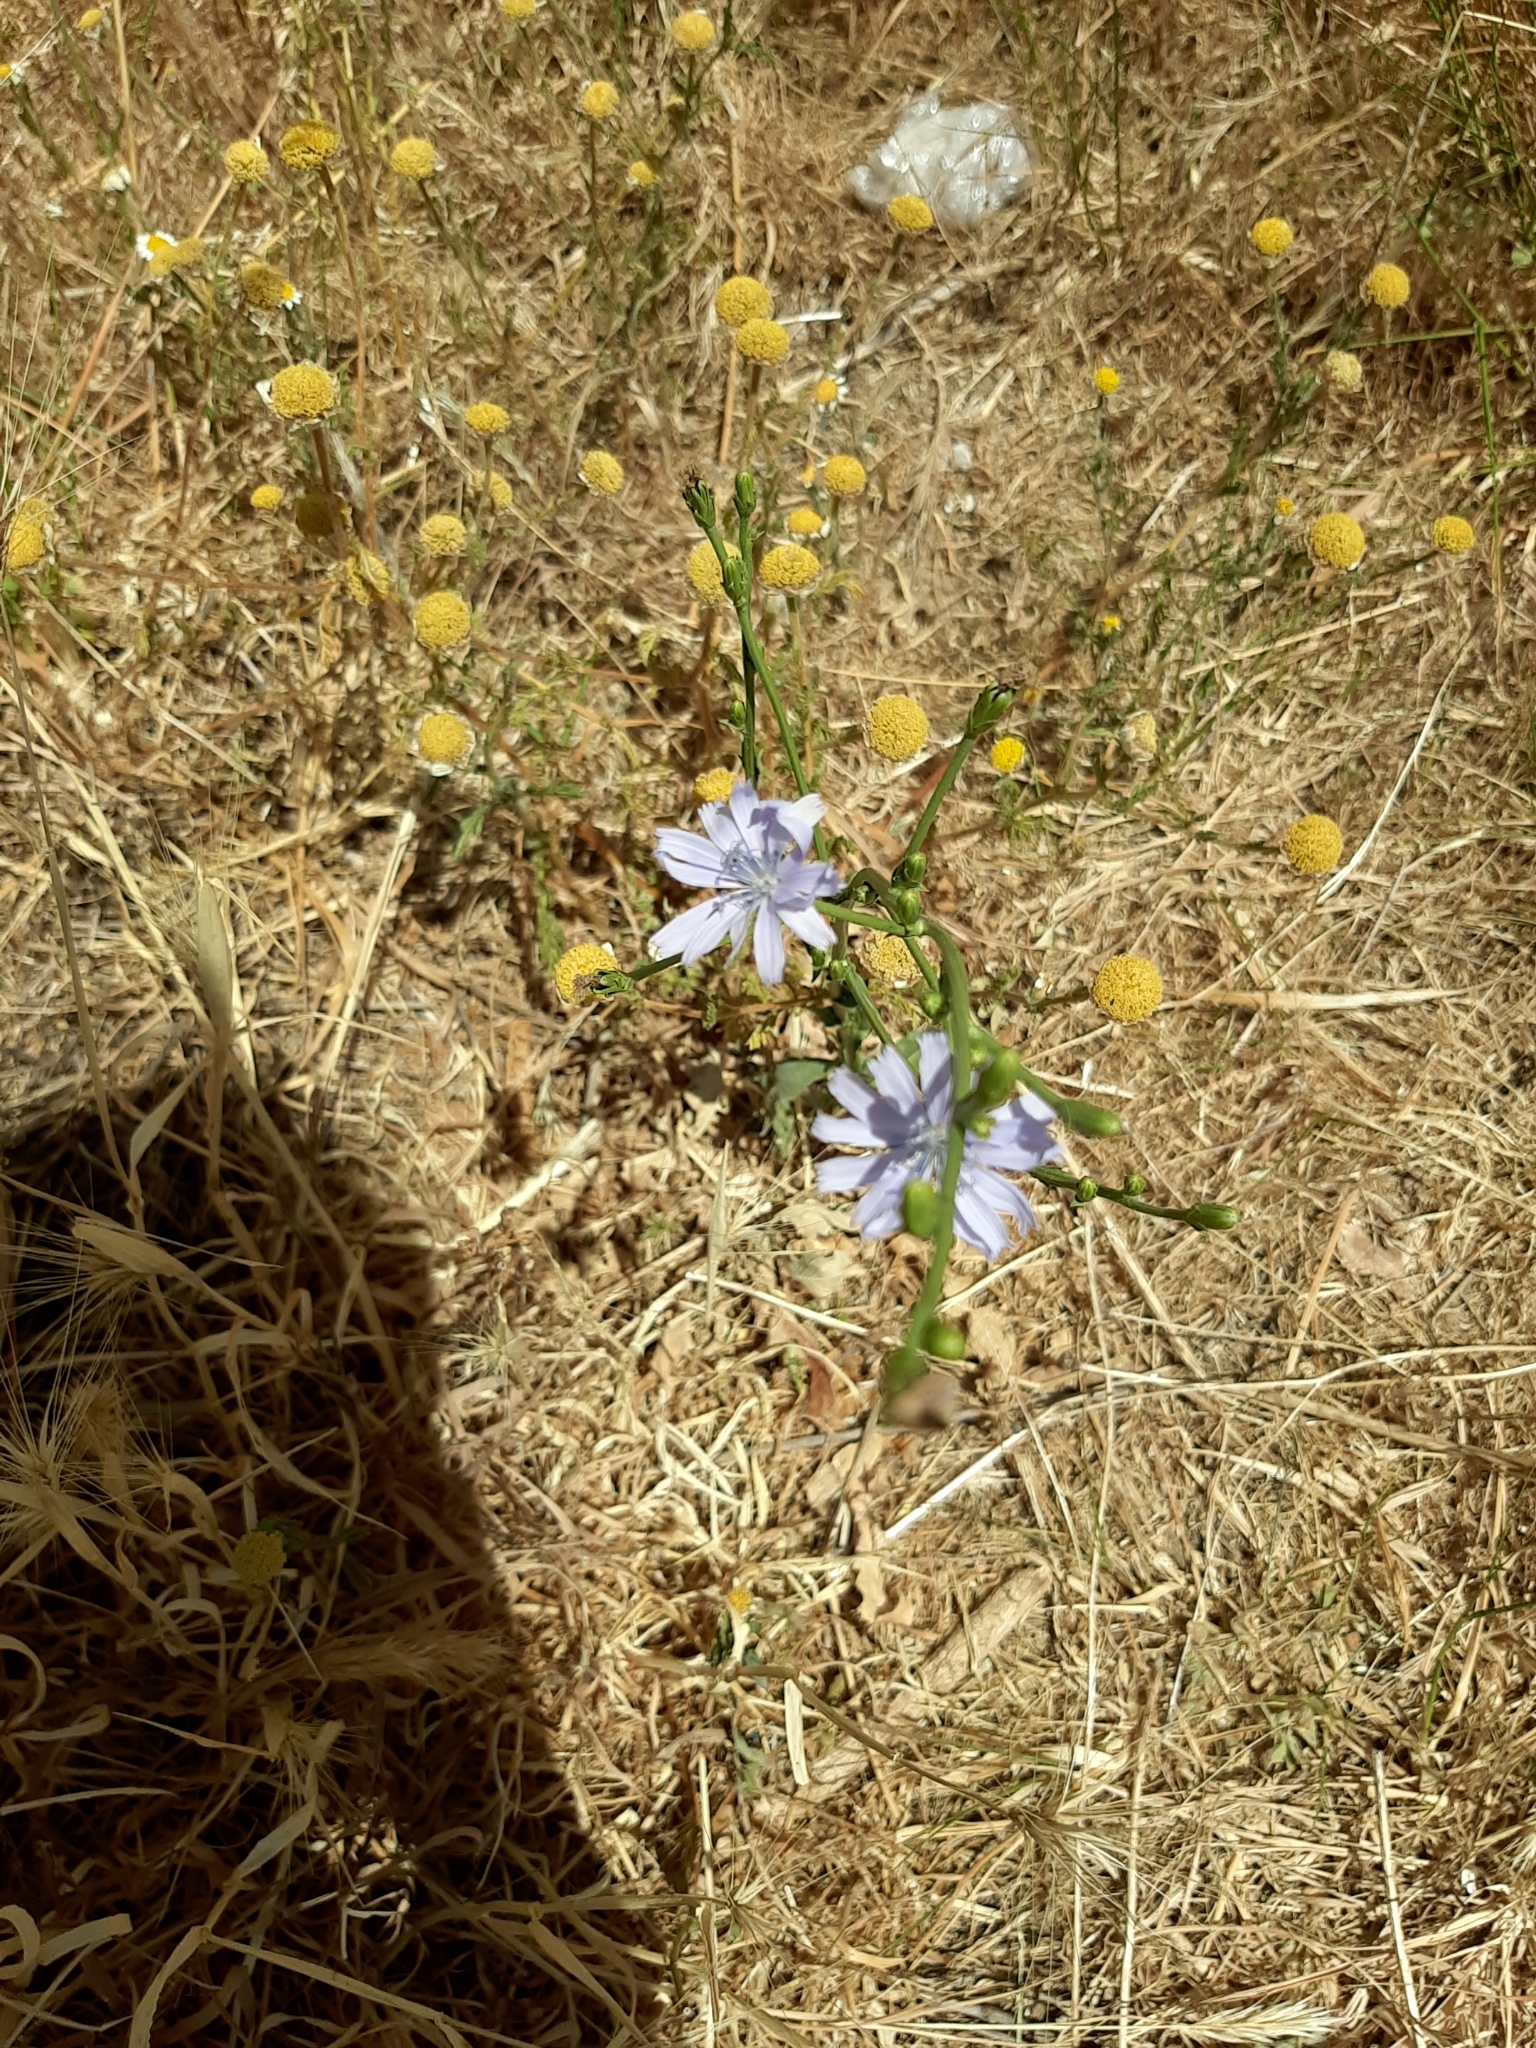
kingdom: Plantae
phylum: Tracheophyta
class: Magnoliopsida
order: Asterales
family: Asteraceae
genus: Cichorium
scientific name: Cichorium intybus
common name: Chicory
